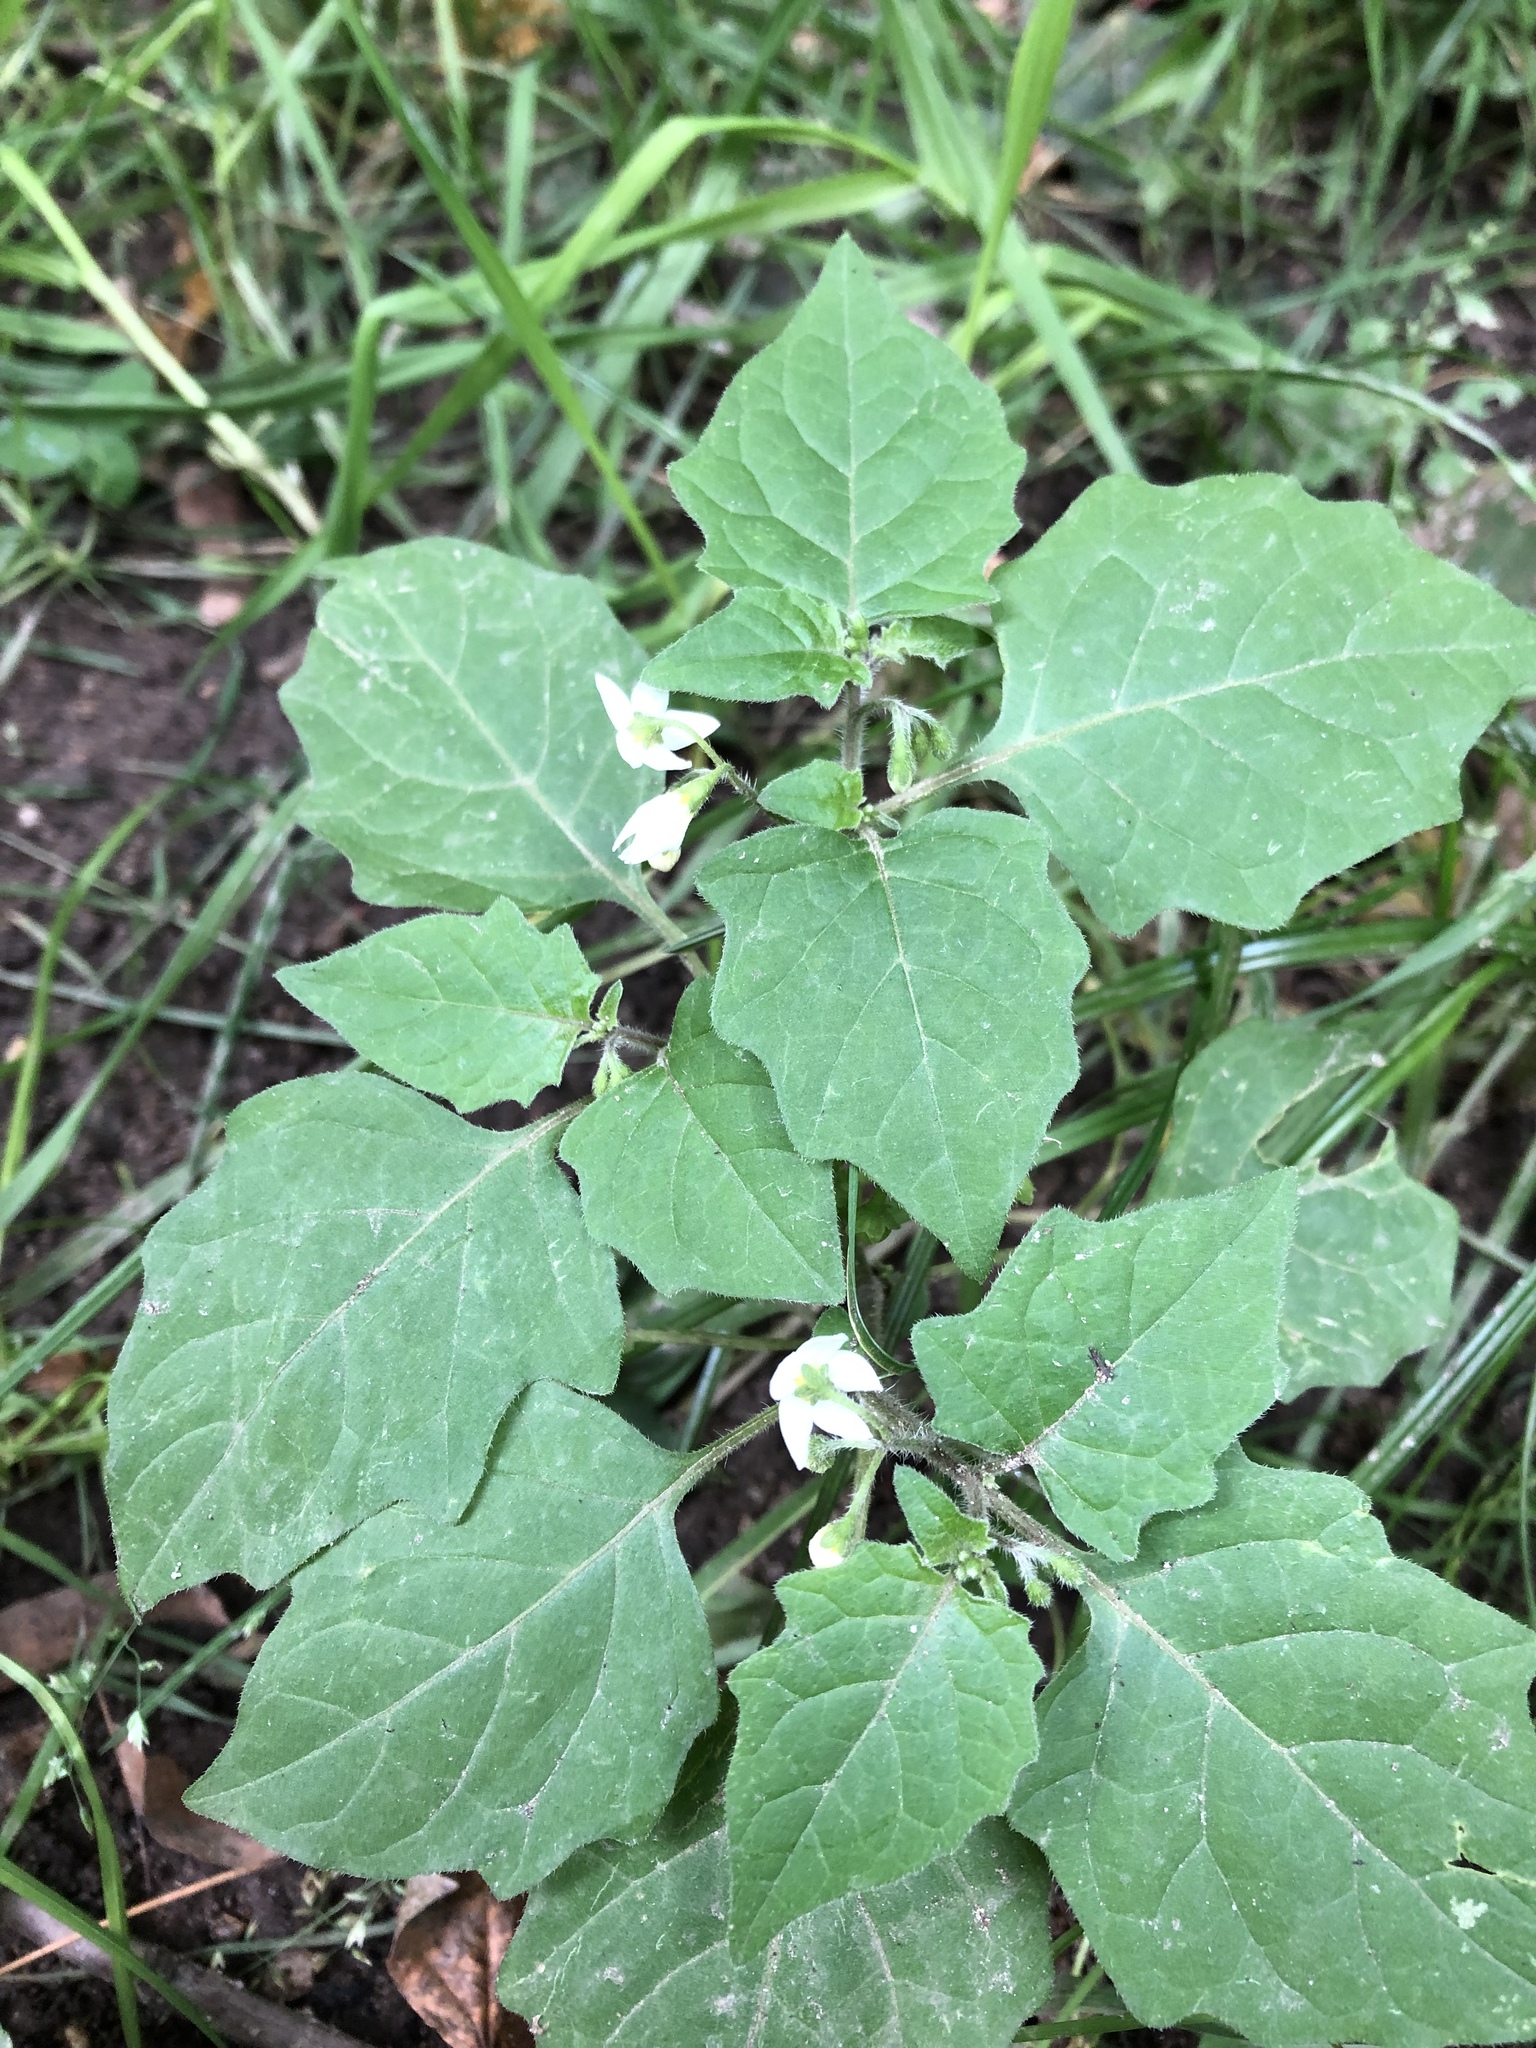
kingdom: Plantae
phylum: Tracheophyta
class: Magnoliopsida
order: Solanales
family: Solanaceae
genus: Solanum
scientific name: Solanum nigrum
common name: Black nightshade
